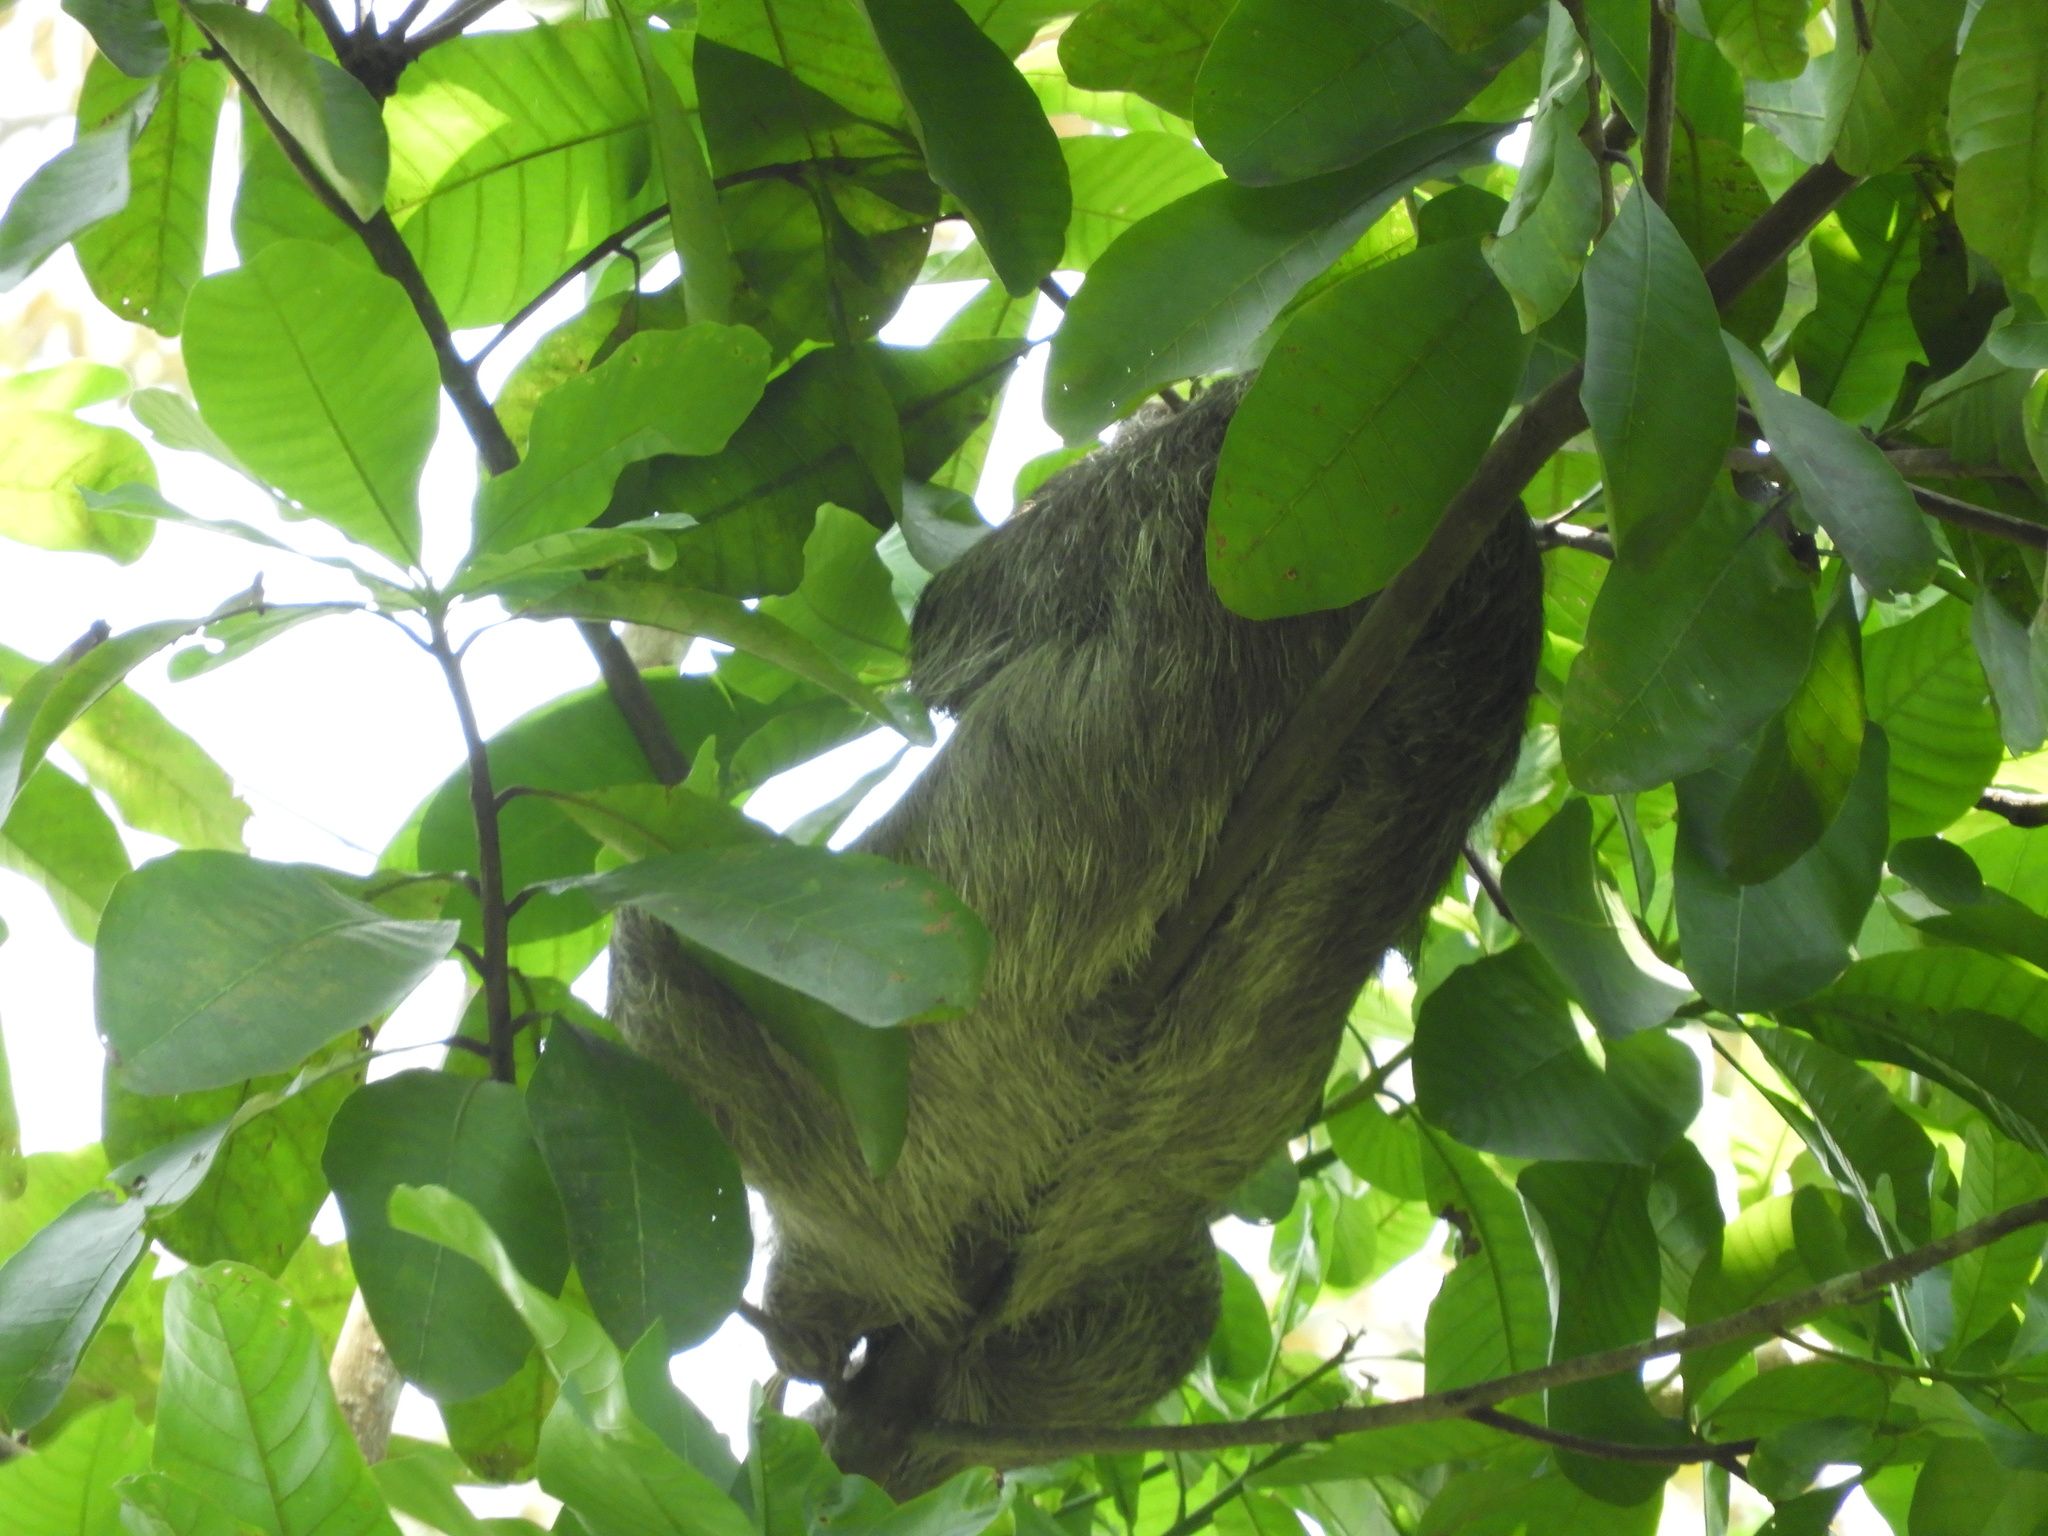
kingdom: Animalia
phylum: Chordata
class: Mammalia
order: Pilosa
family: Bradypodidae
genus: Bradypus
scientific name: Bradypus variegatus
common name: Brown-throated three-toed sloth
